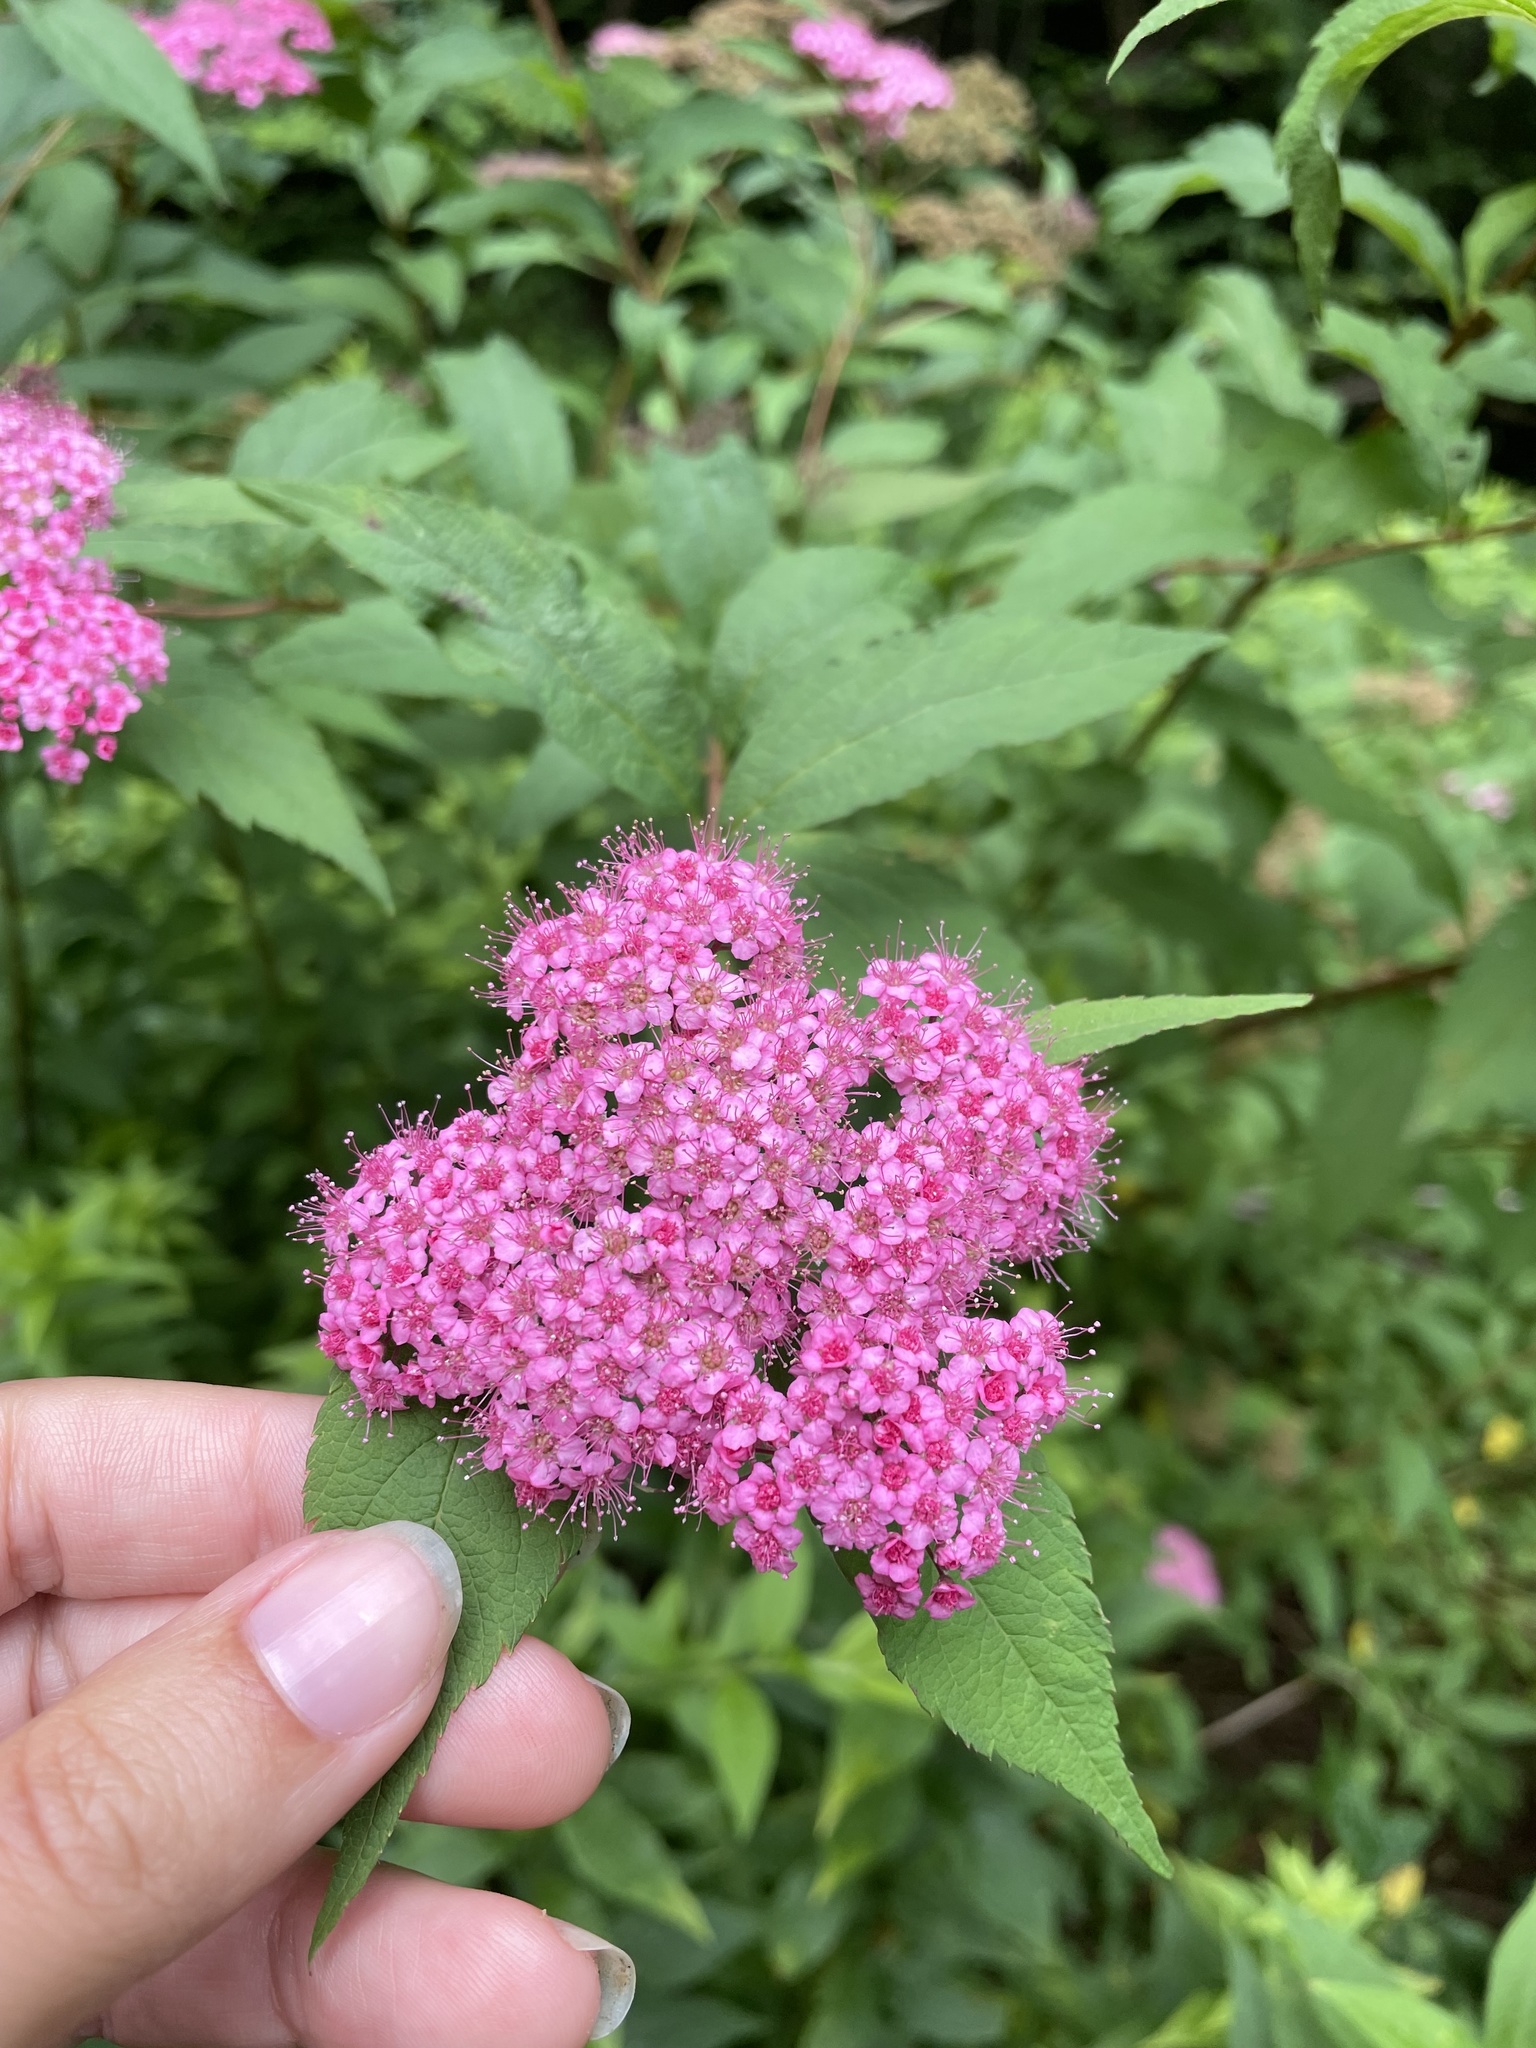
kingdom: Plantae
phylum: Tracheophyta
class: Magnoliopsida
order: Rosales
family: Rosaceae
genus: Spiraea
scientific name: Spiraea japonica
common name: Japanese spiraea
